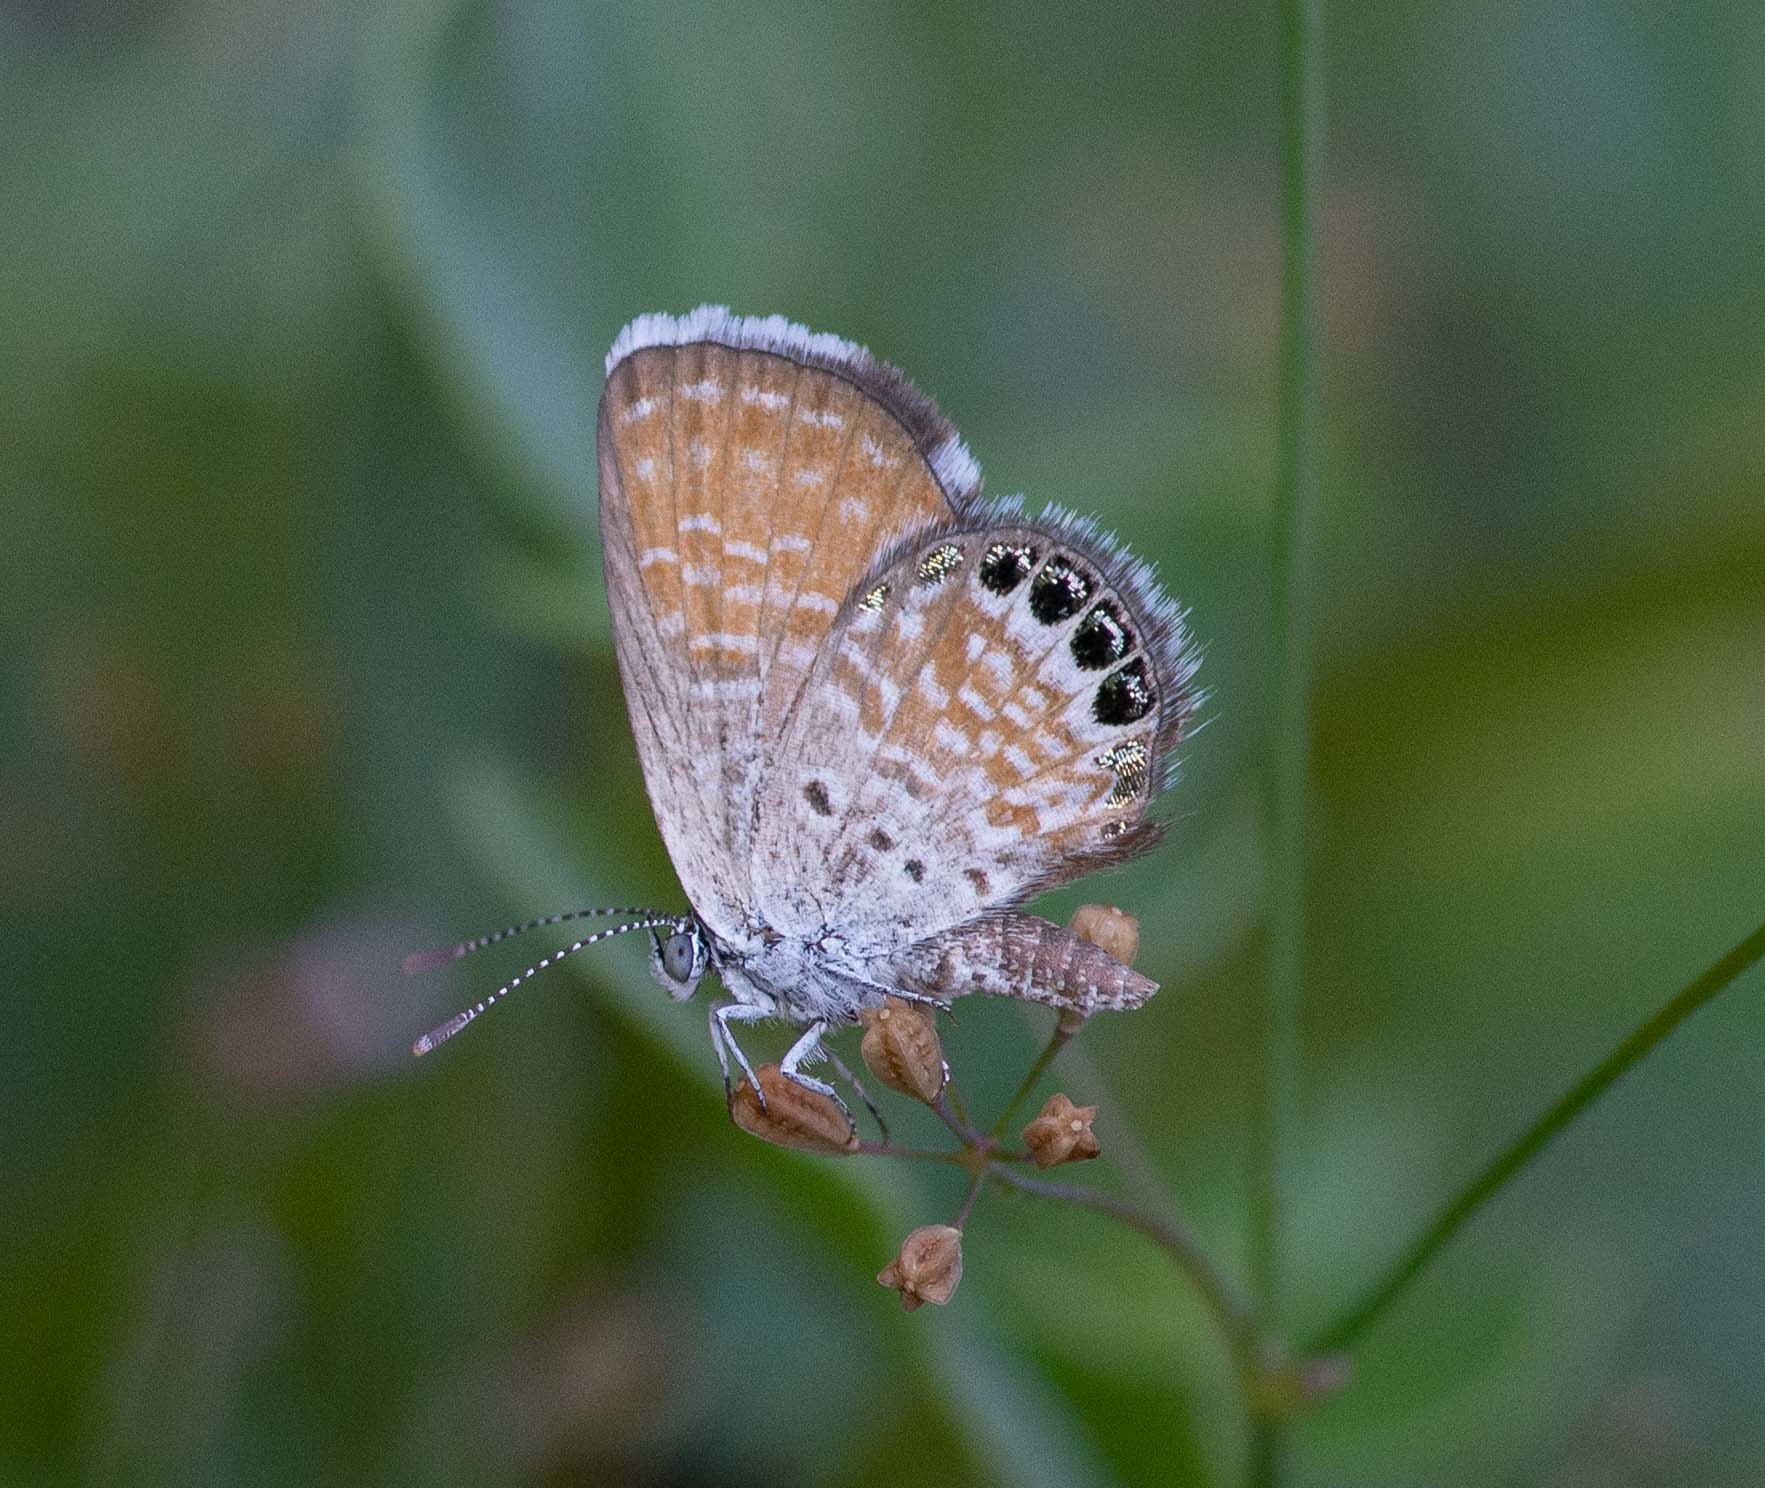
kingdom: Animalia
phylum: Arthropoda
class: Insecta
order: Lepidoptera
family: Lycaenidae
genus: Brephidium
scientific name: Brephidium exilis
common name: Pygmy blue
